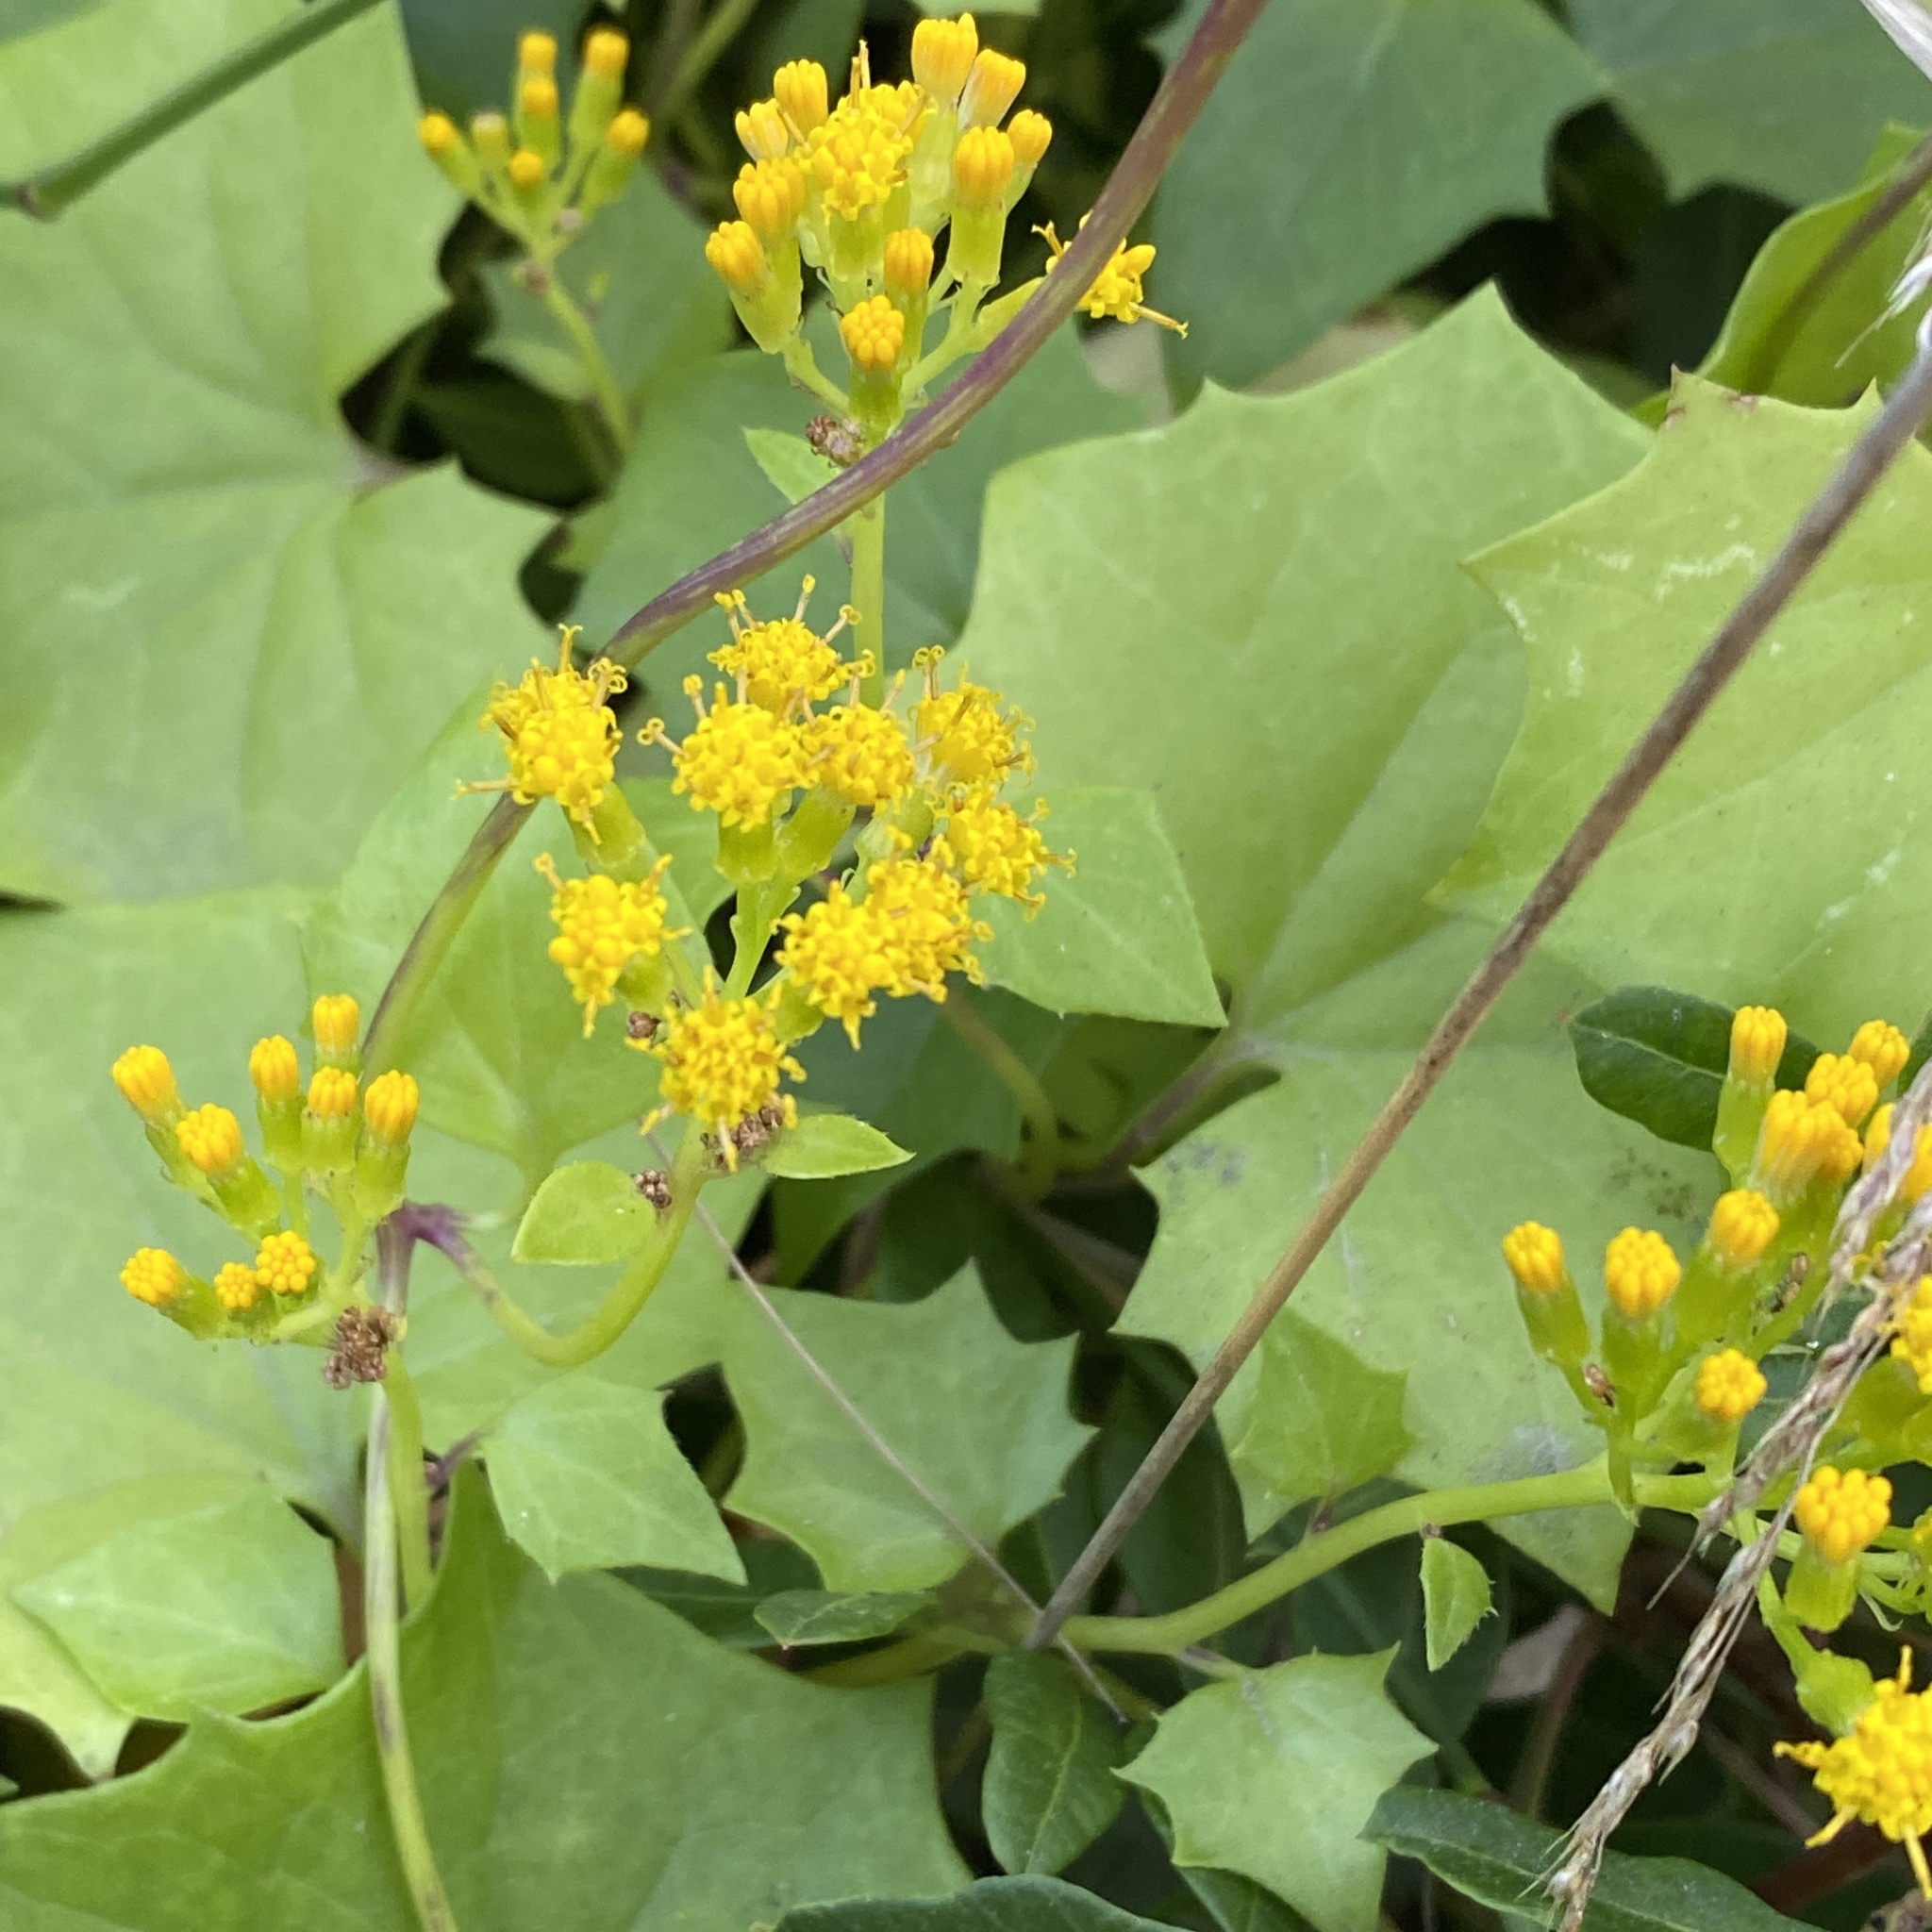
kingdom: Plantae
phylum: Tracheophyta
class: Magnoliopsida
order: Asterales
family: Asteraceae
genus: Delairea
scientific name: Delairea odorata
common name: Cape-ivy
